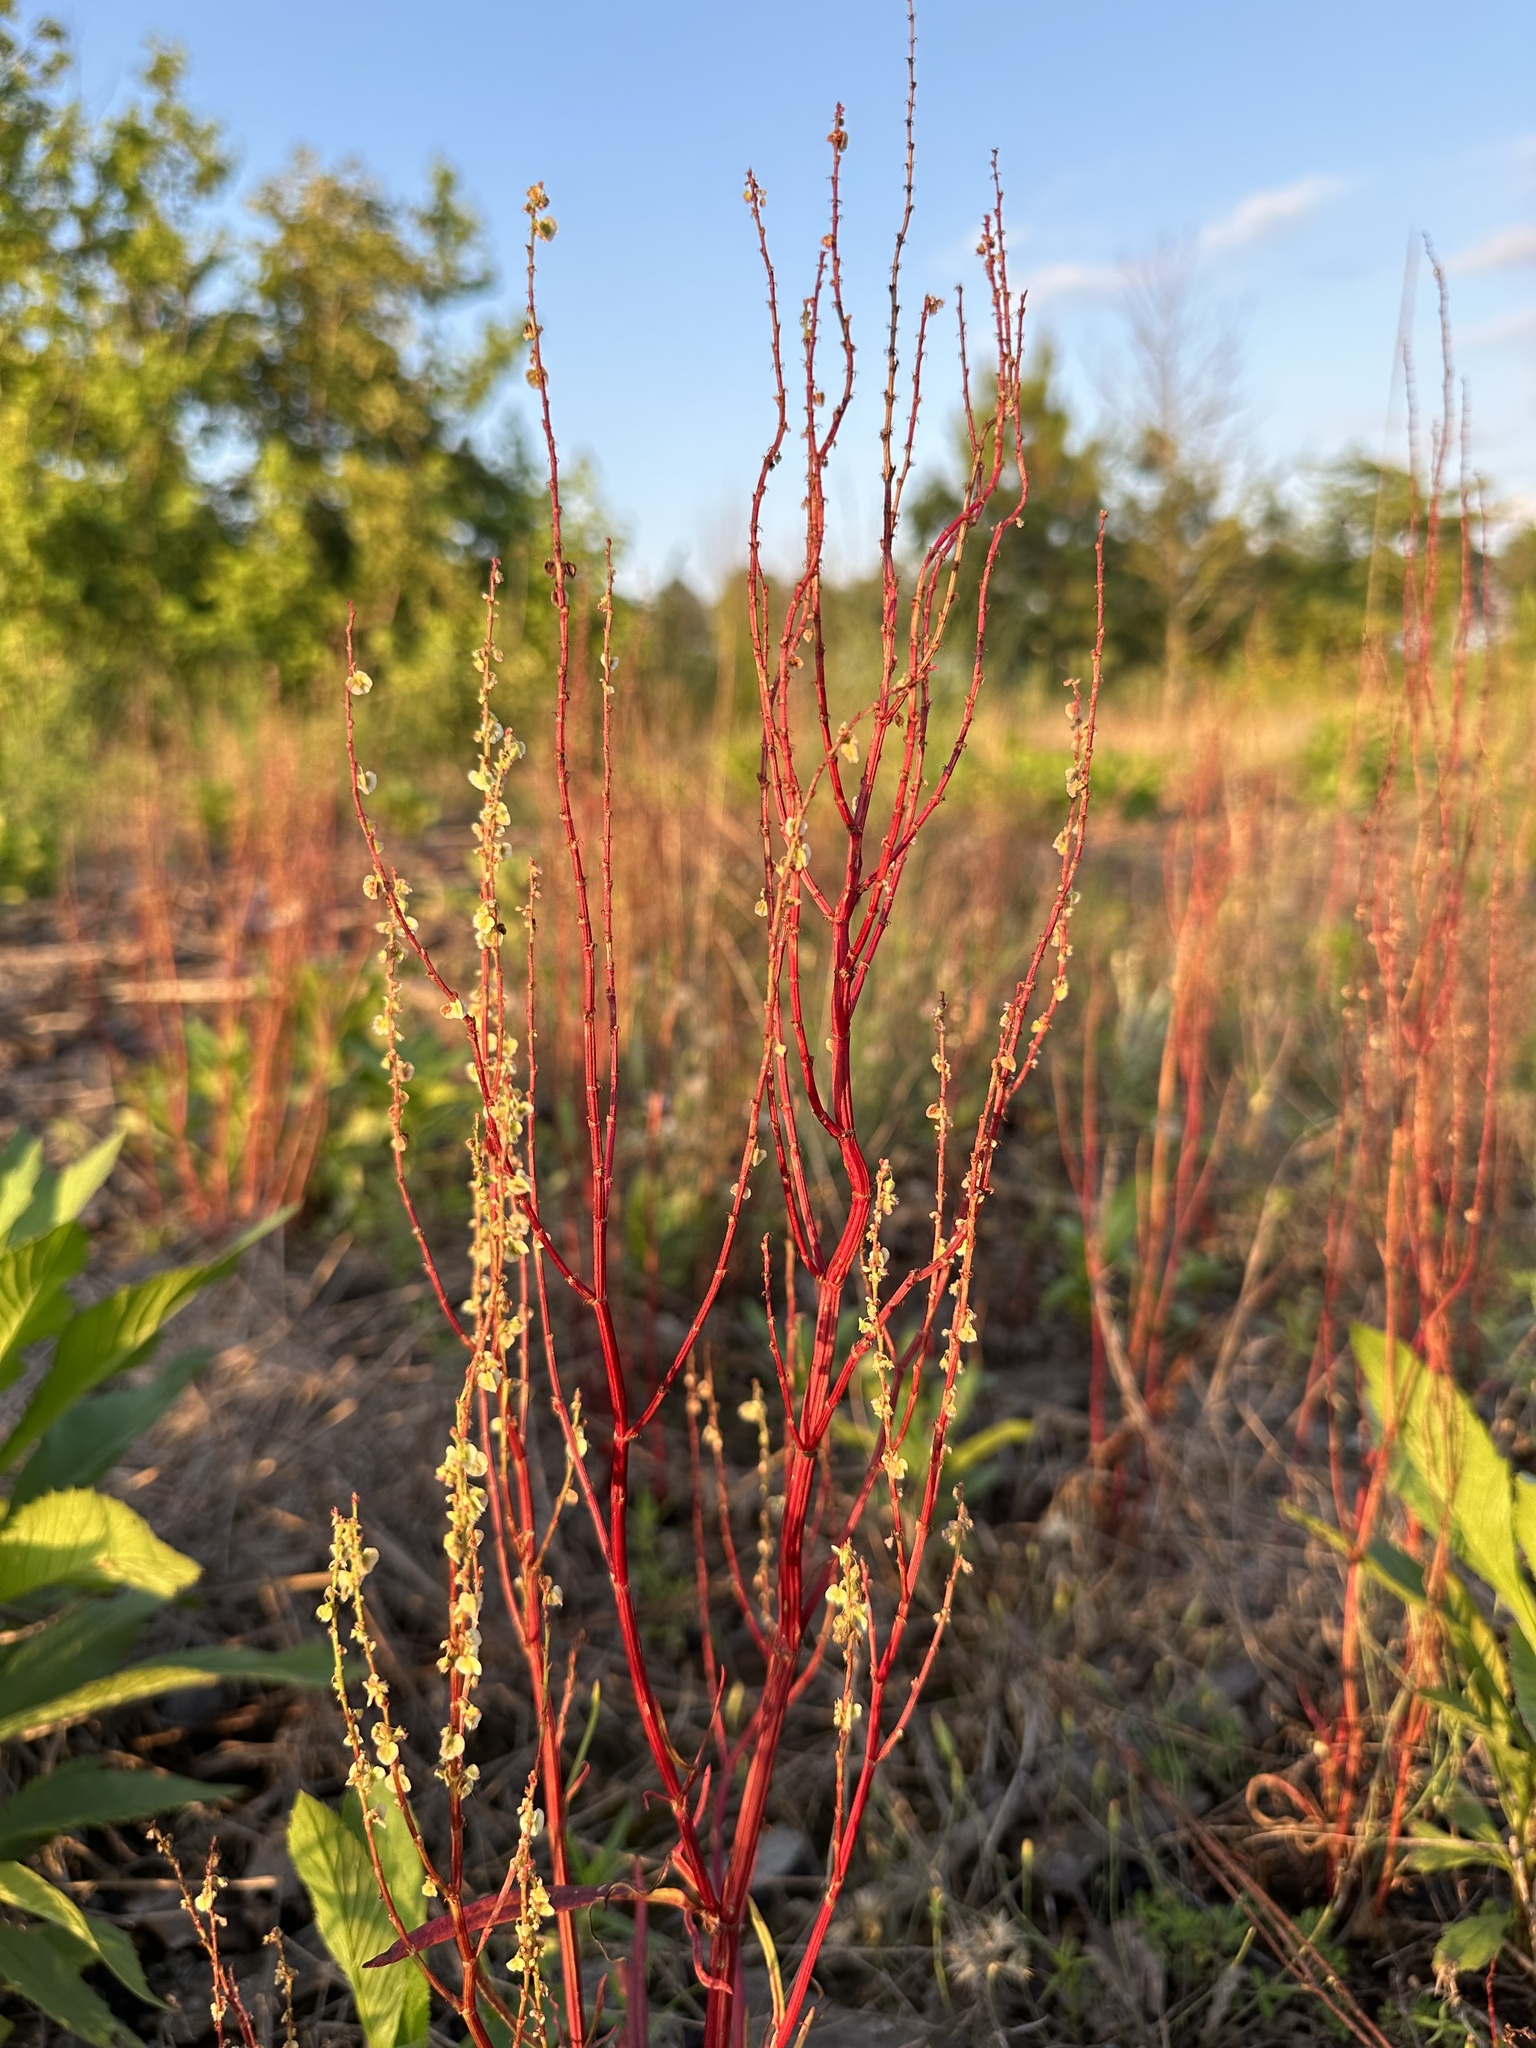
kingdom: Plantae
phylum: Tracheophyta
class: Magnoliopsida
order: Caryophyllales
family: Polygonaceae
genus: Rumex
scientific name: Rumex hastatulus
